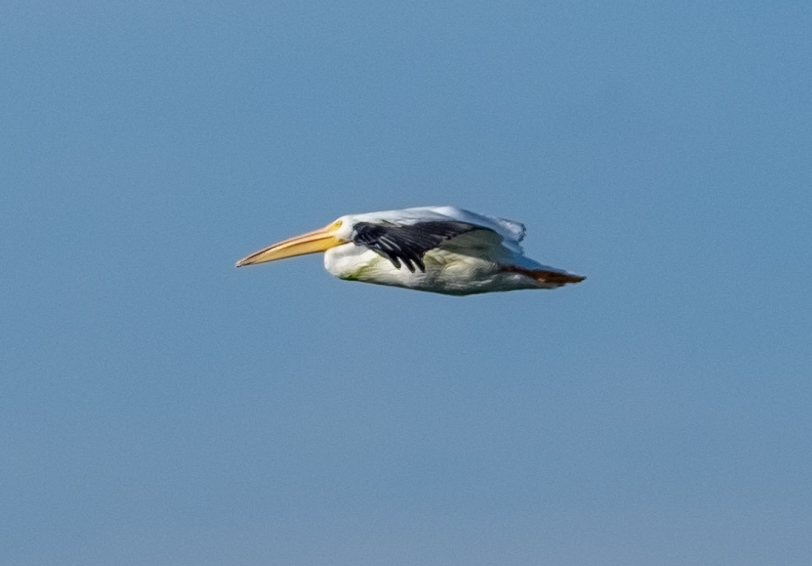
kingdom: Animalia
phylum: Chordata
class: Aves
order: Pelecaniformes
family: Pelecanidae
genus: Pelecanus
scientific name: Pelecanus erythrorhynchos
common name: American white pelican
